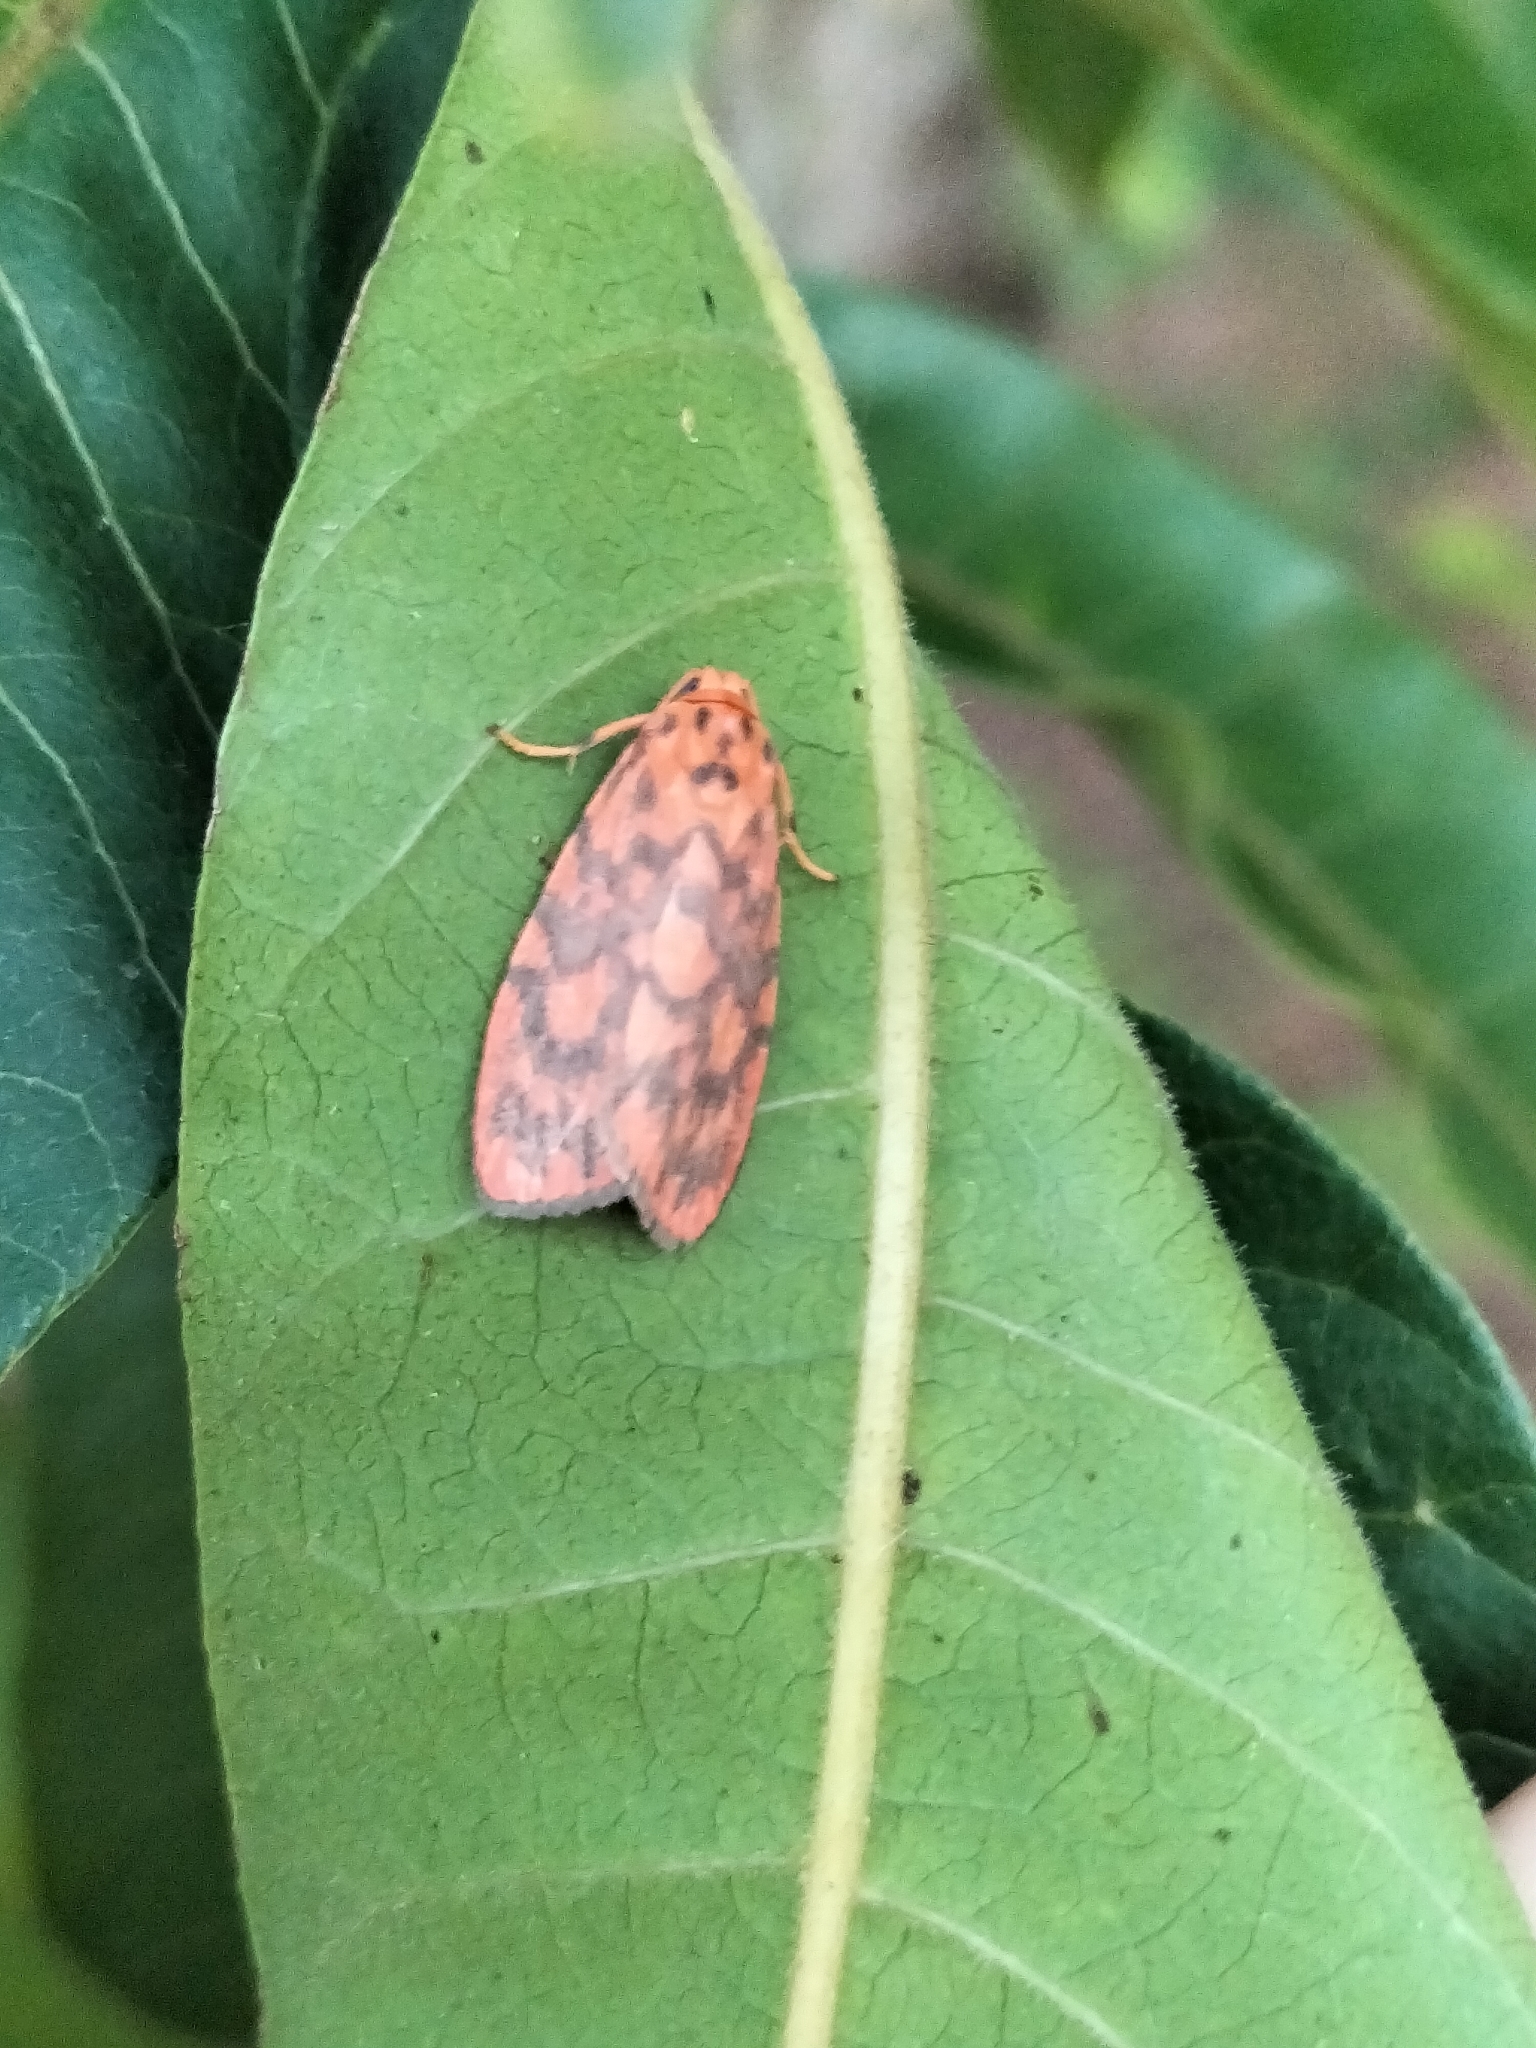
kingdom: Animalia
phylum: Arthropoda
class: Insecta
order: Lepidoptera
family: Erebidae
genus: Cyme
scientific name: Cyme pyraula
